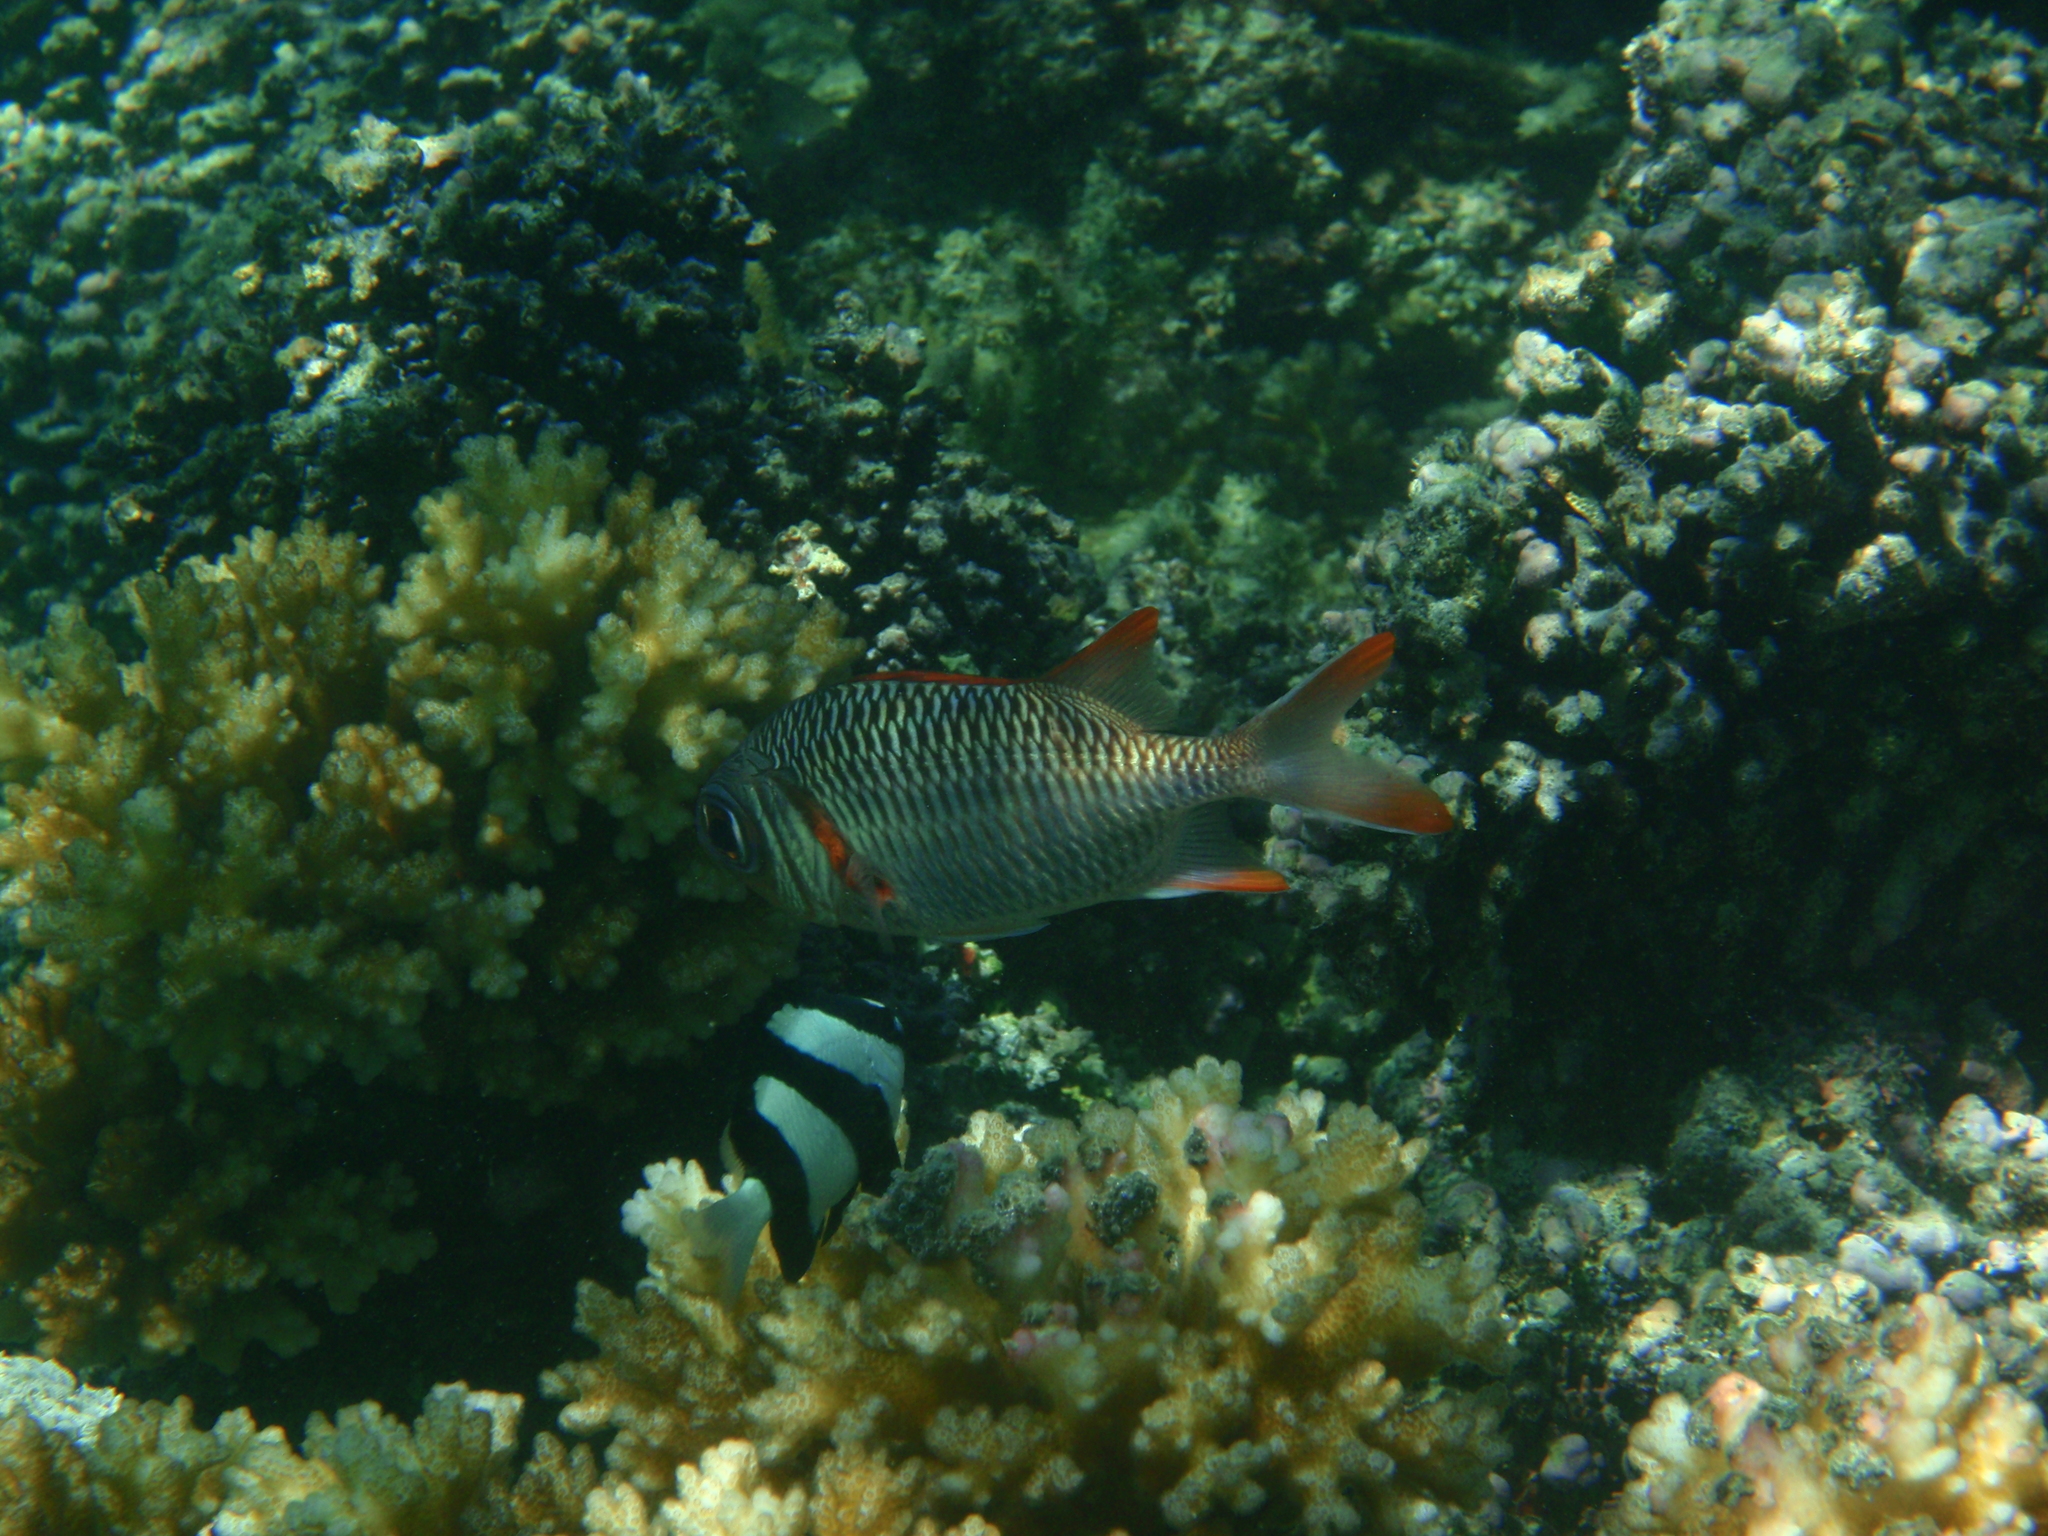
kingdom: Animalia
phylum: Chordata
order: Beryciformes
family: Holocentridae
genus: Myripristis
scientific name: Myripristis violacea
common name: Lattice soldierfish
